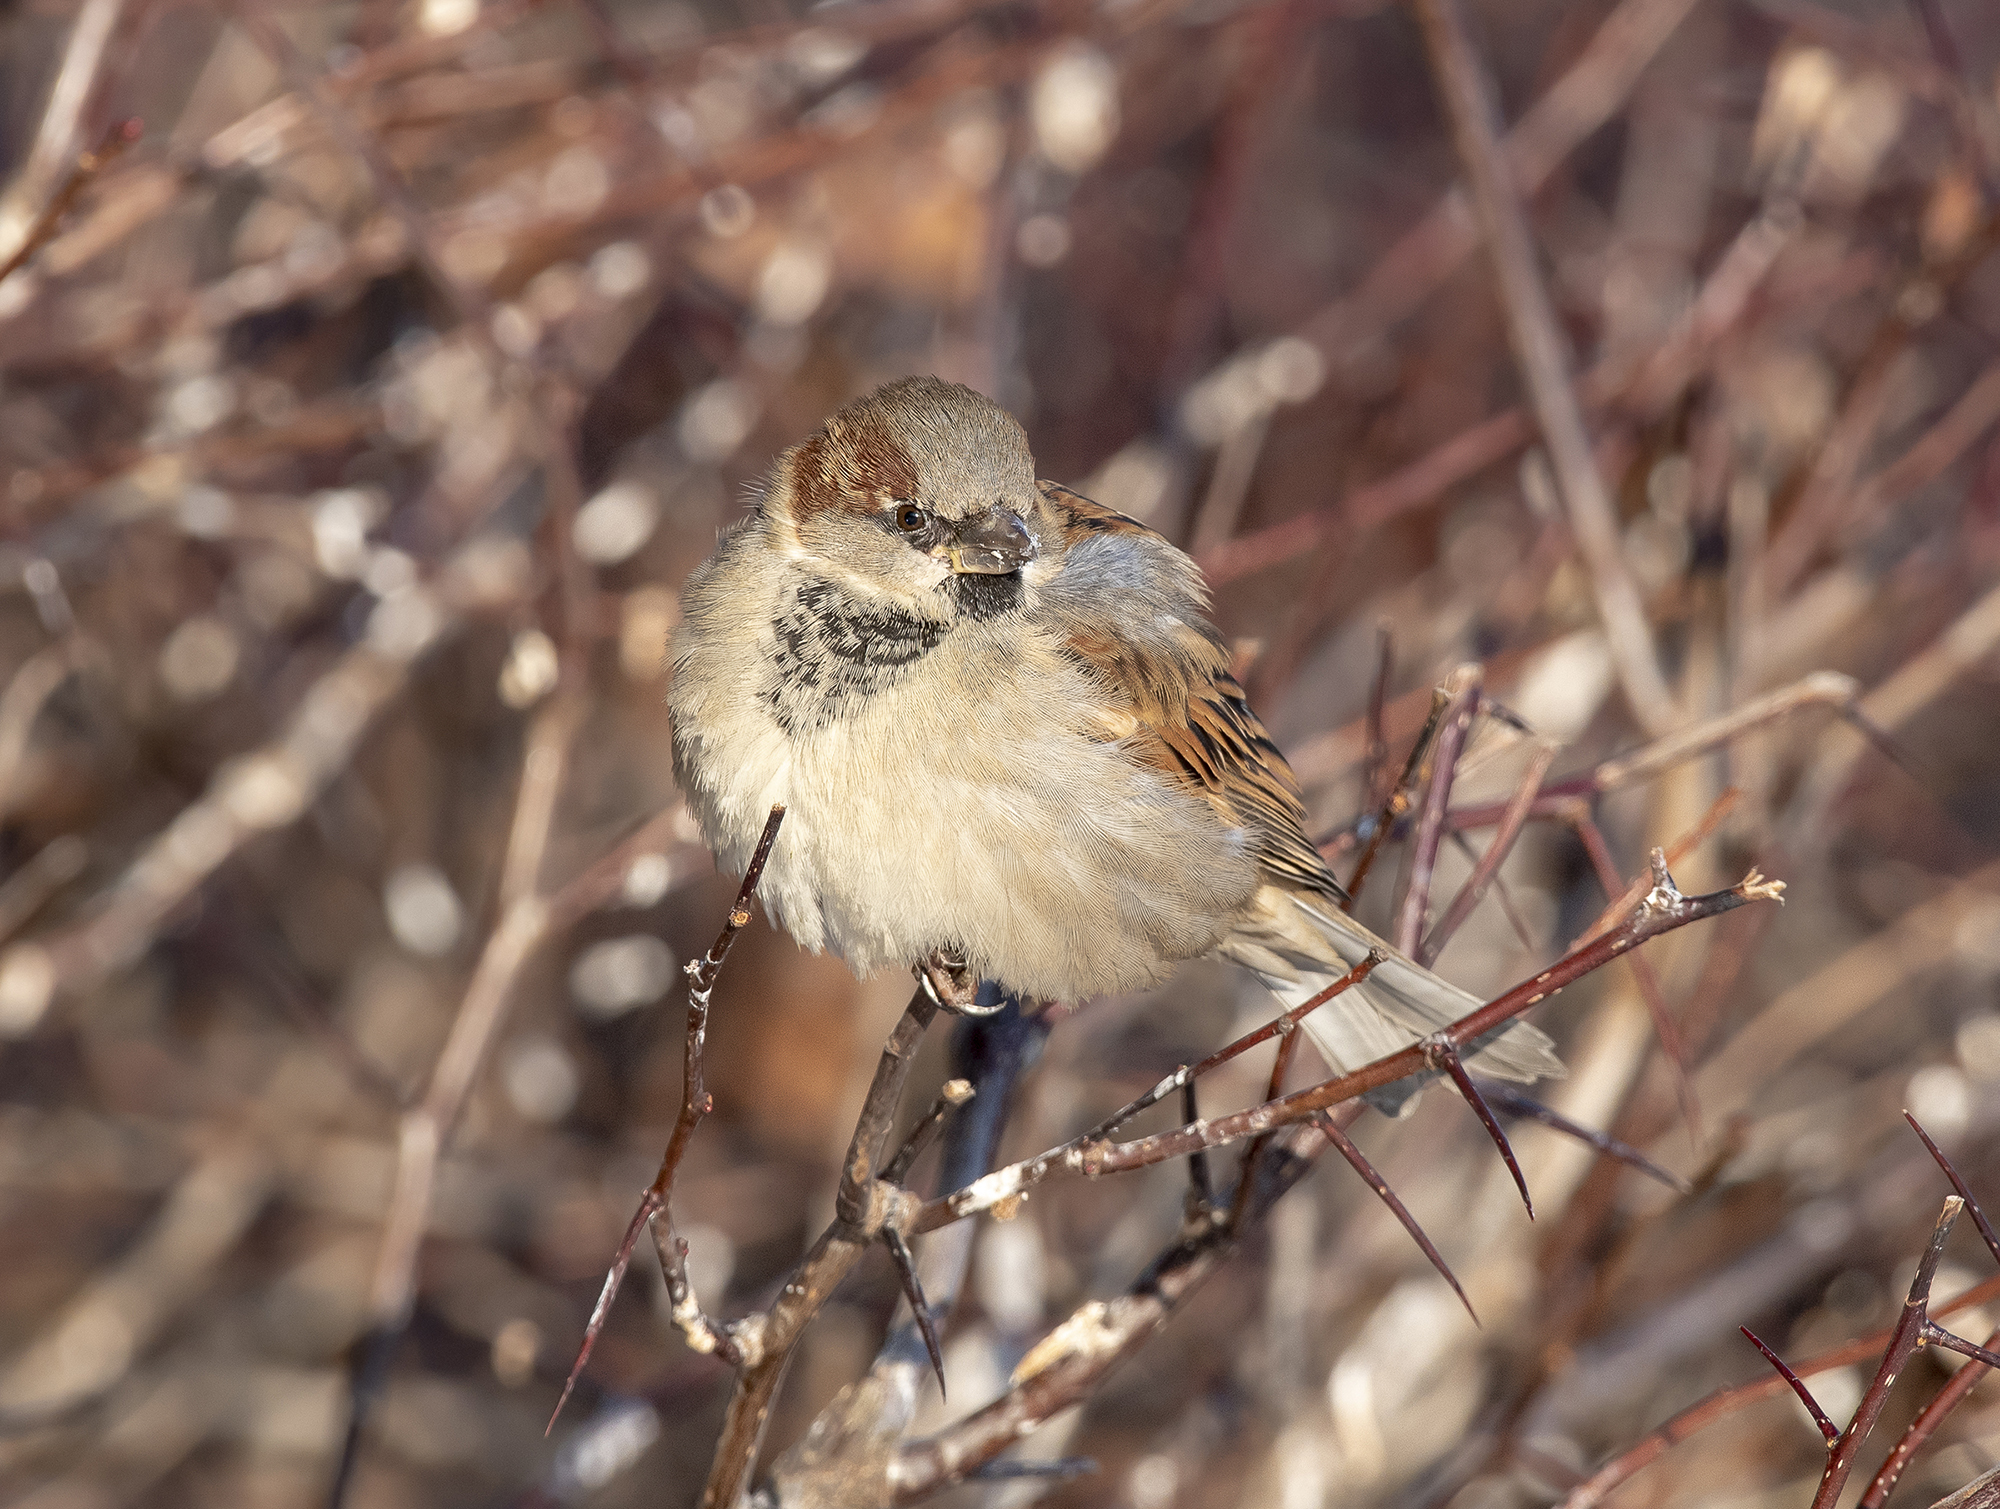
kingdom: Animalia
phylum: Chordata
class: Aves
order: Passeriformes
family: Passeridae
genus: Passer
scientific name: Passer domesticus
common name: House sparrow
